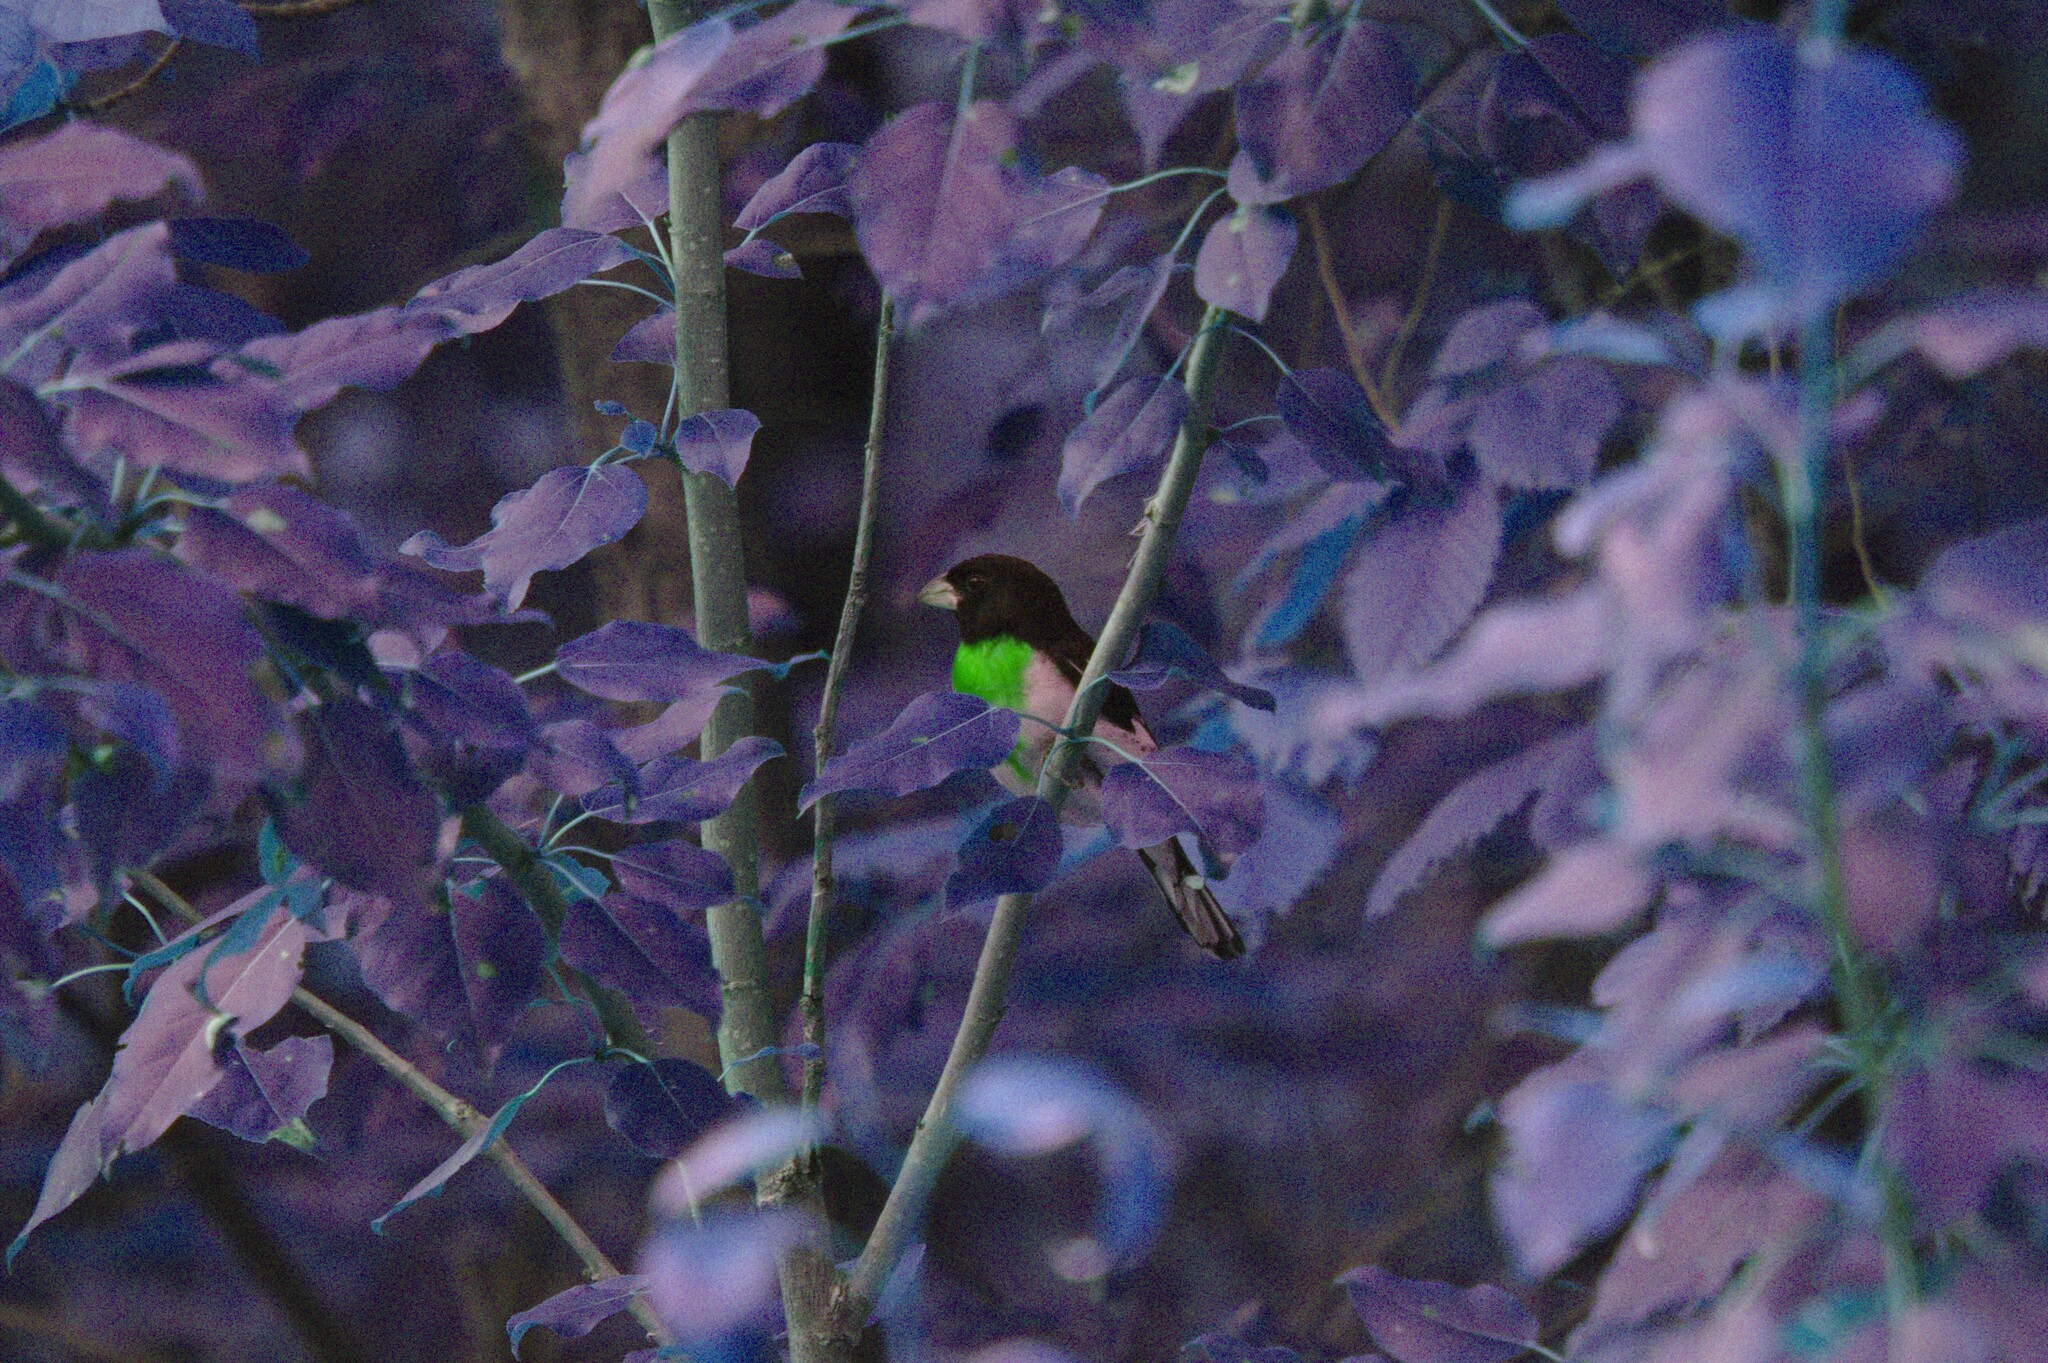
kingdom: Plantae
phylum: Tracheophyta
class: Magnoliopsida
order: Malpighiales
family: Salicaceae
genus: Populus
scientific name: Populus balsamifera
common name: Balsam poplar
